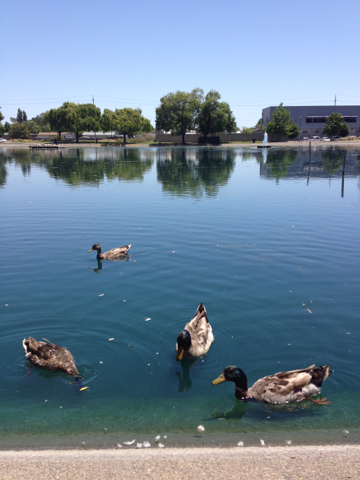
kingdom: Animalia
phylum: Chordata
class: Aves
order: Anseriformes
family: Anatidae
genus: Anas
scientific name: Anas platyrhynchos
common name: Mallard
